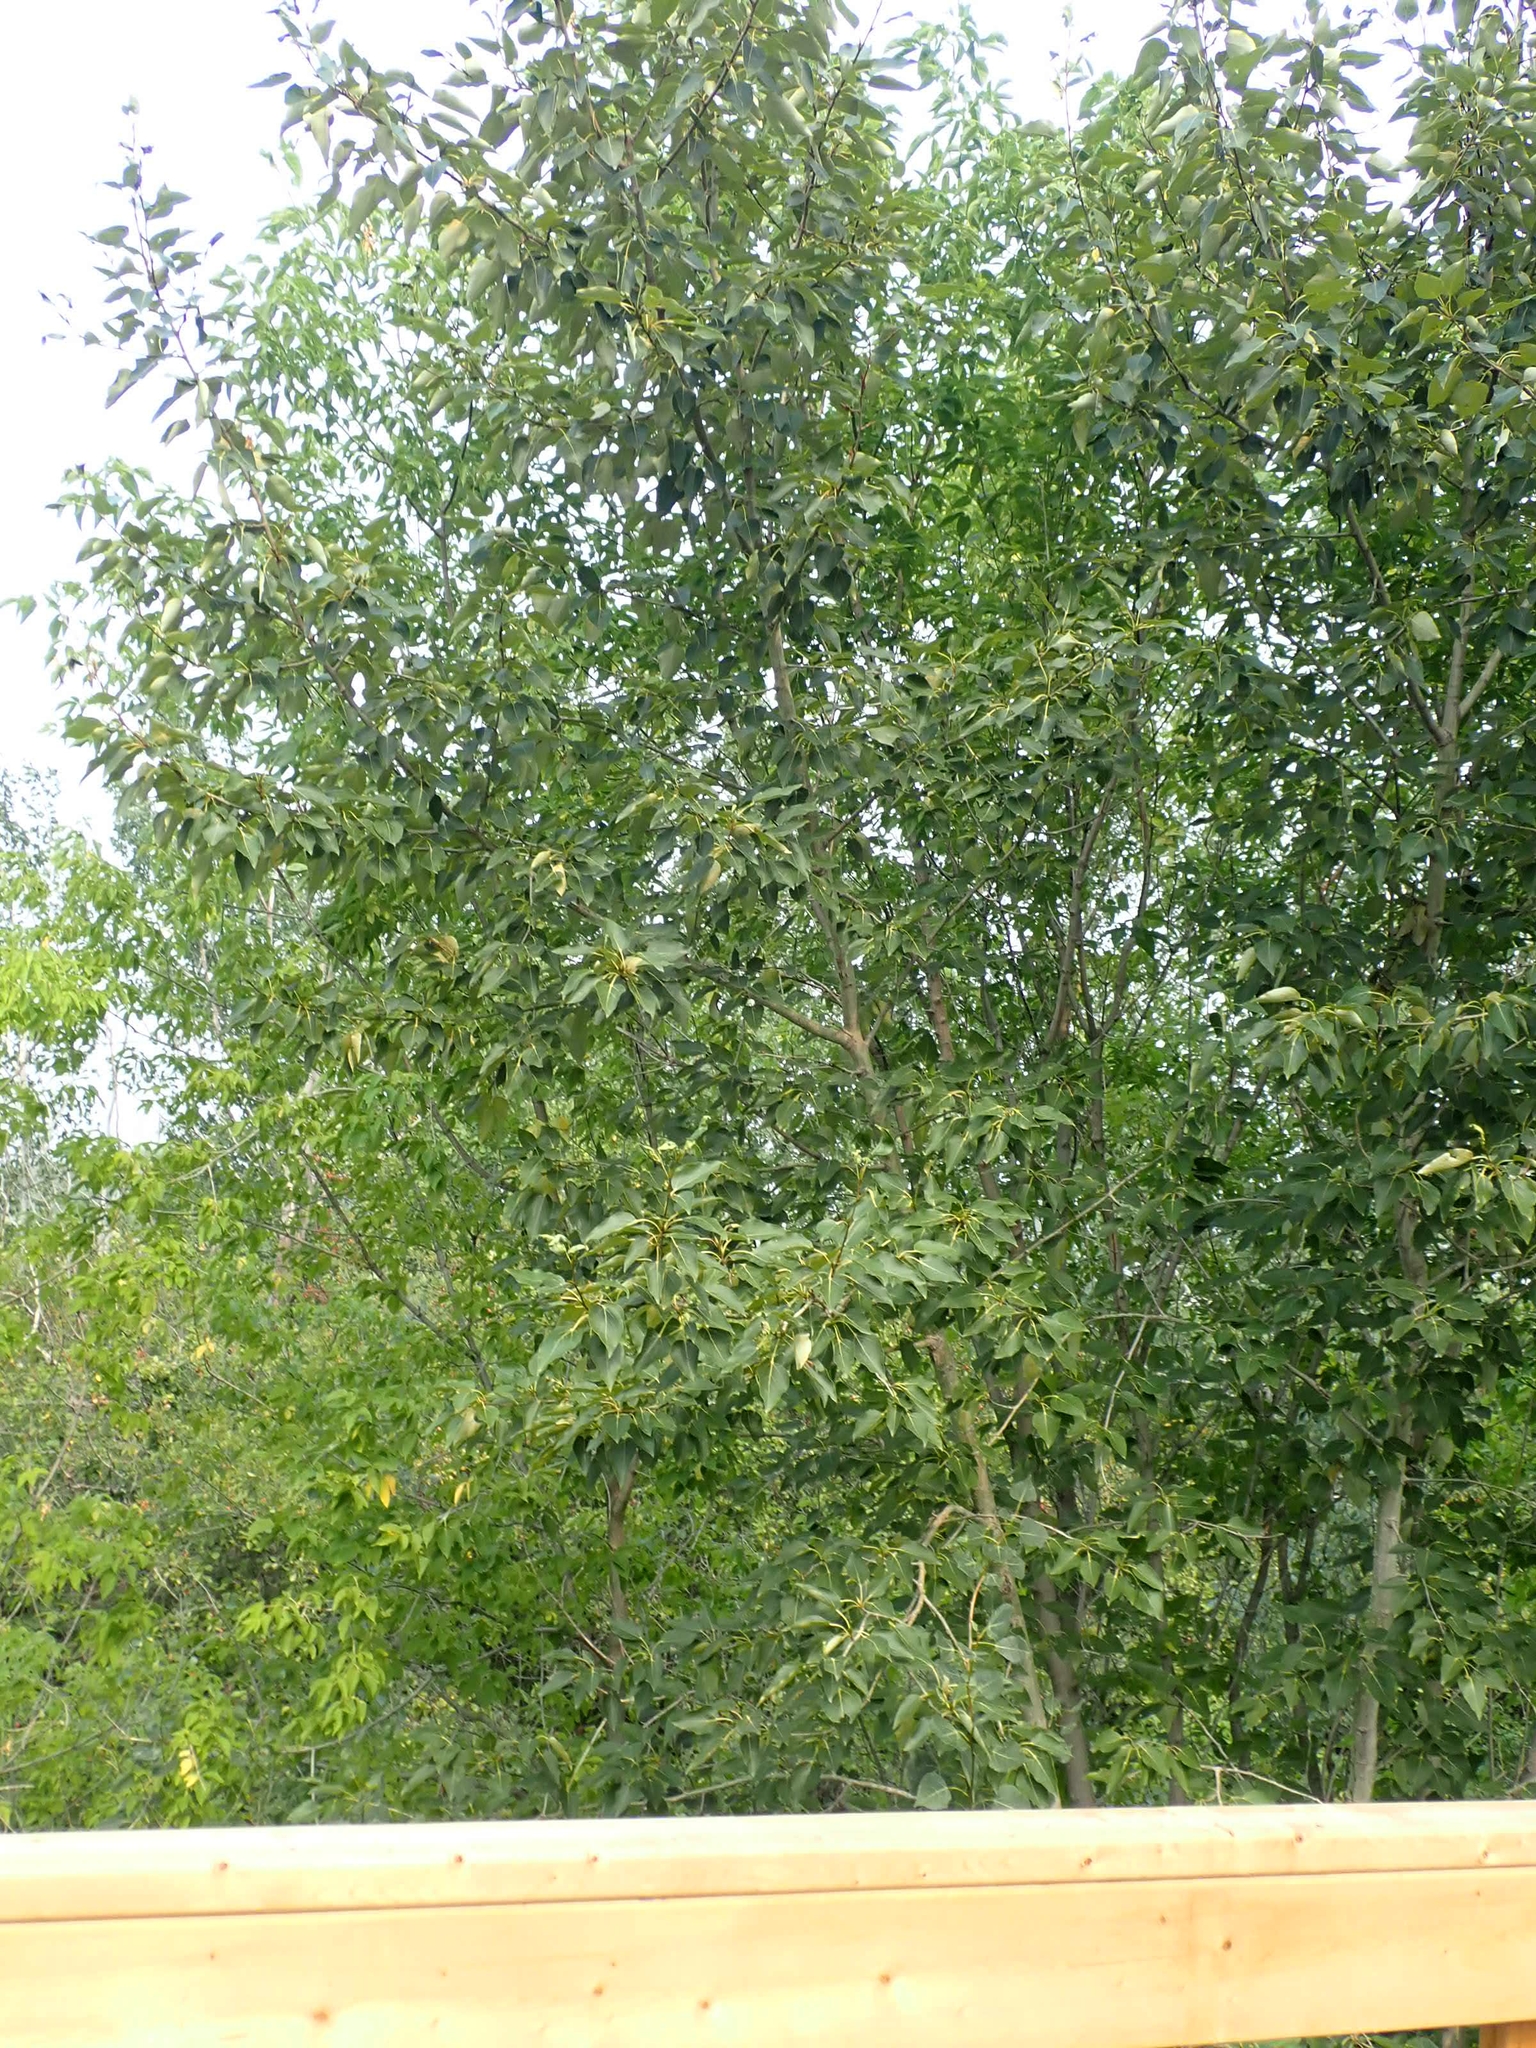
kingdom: Plantae
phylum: Tracheophyta
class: Magnoliopsida
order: Malpighiales
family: Salicaceae
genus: Populus
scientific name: Populus balsamifera
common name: Balsam poplar
